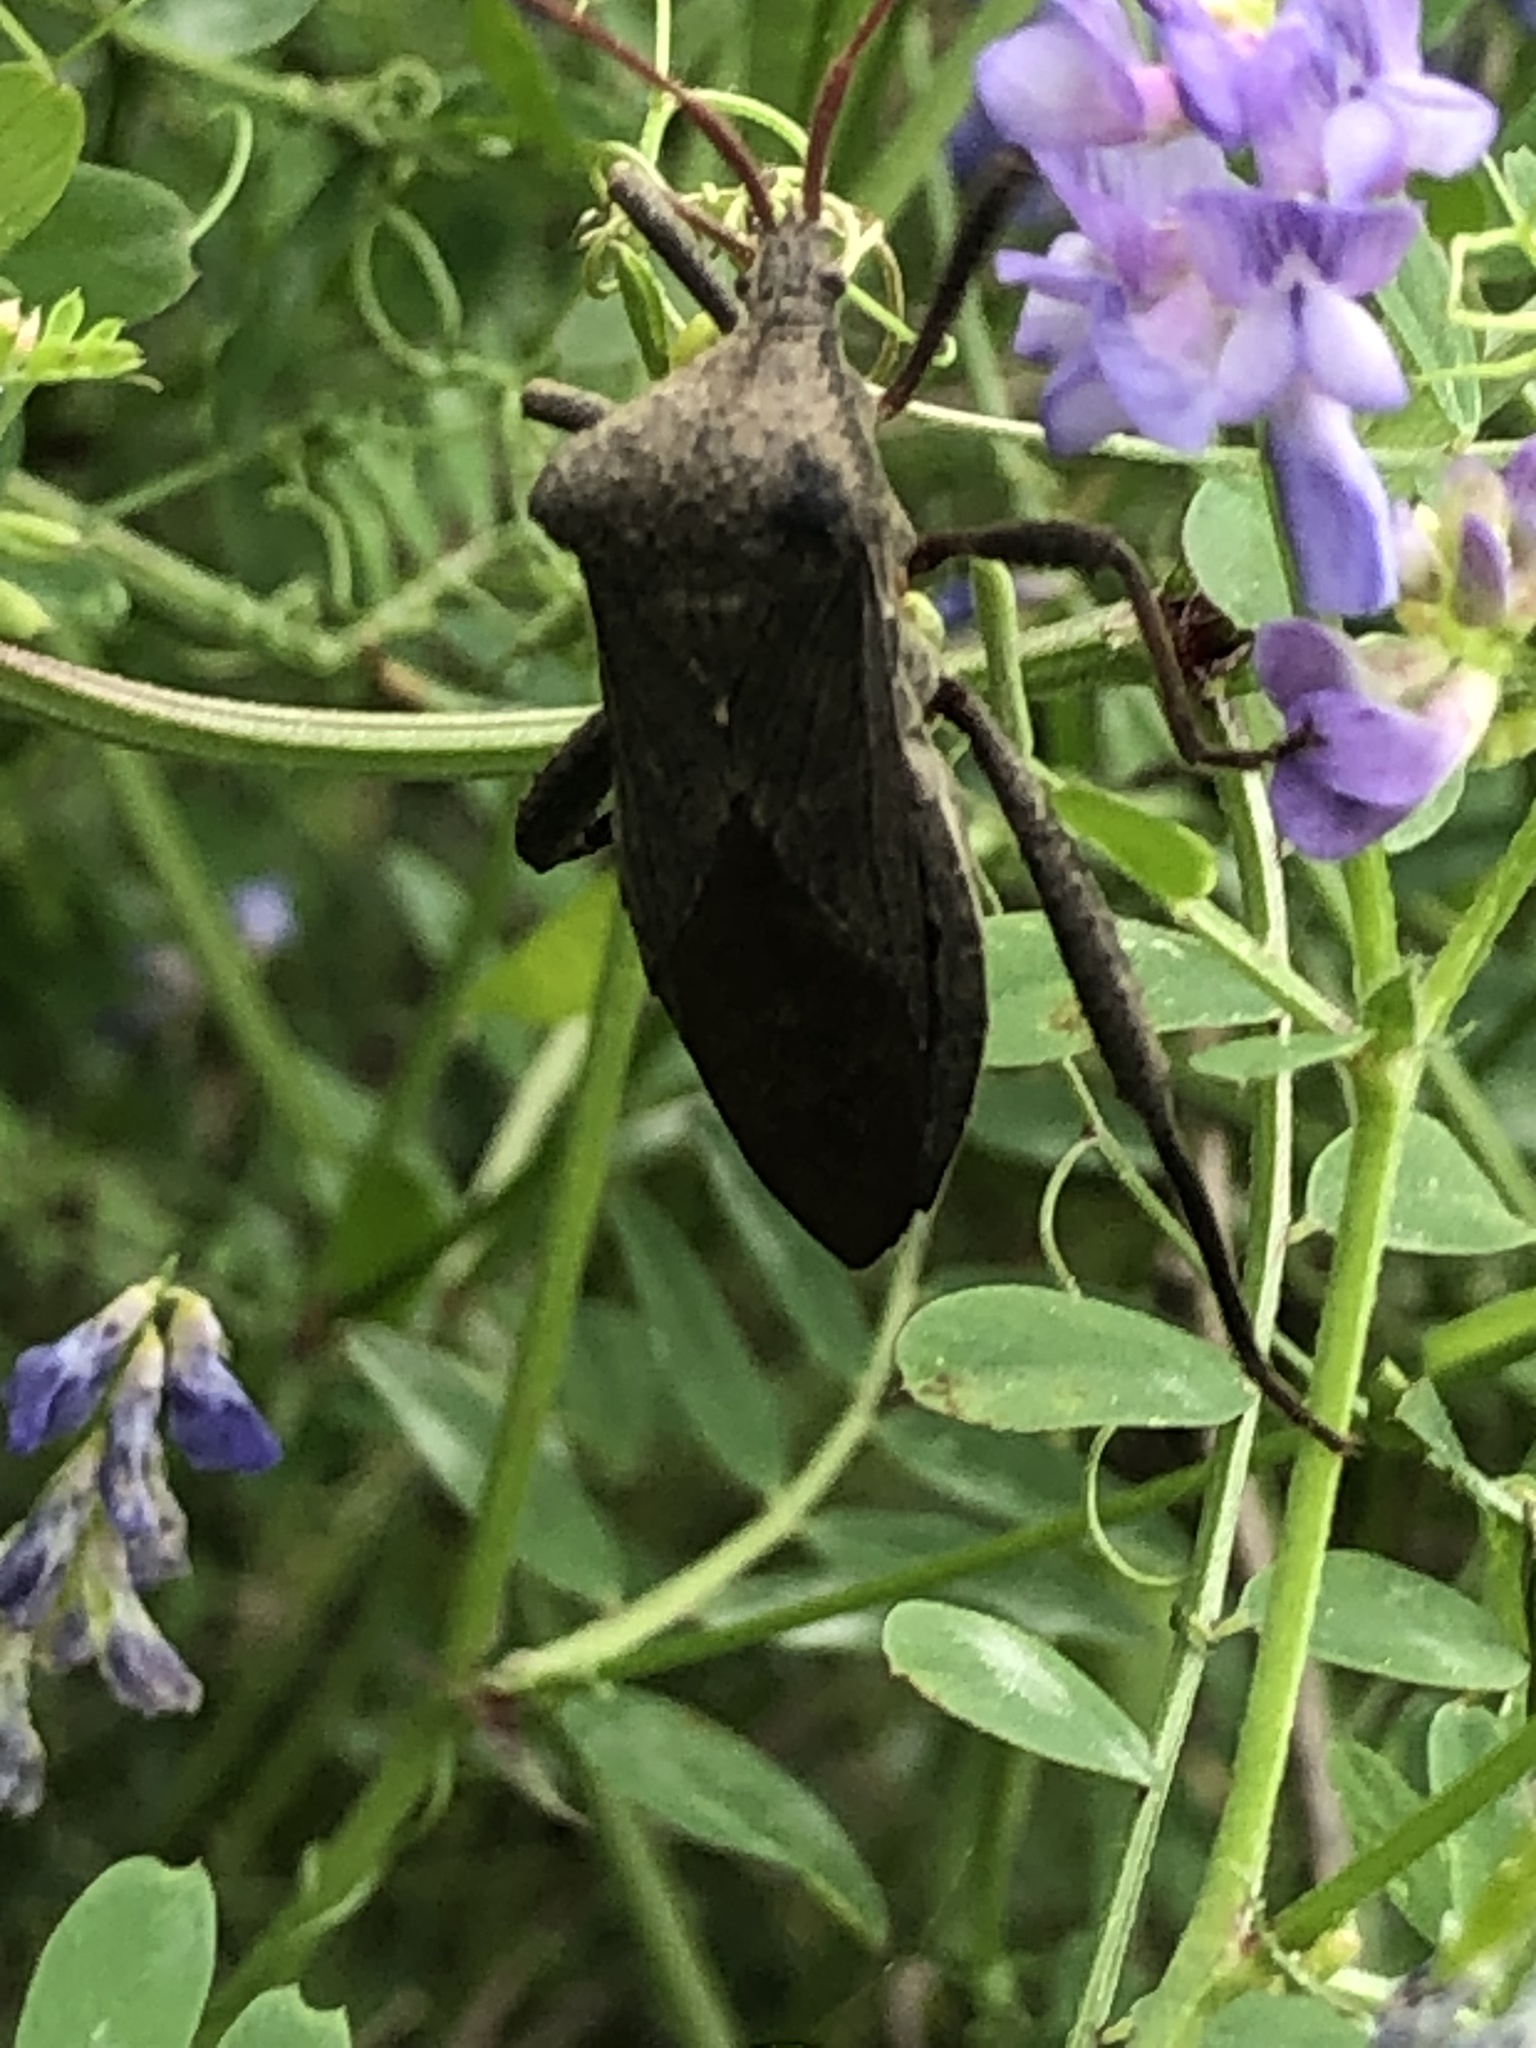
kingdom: Animalia
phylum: Arthropoda
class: Insecta
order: Hemiptera
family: Coreidae
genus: Acanthocephala
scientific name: Acanthocephala femorata
